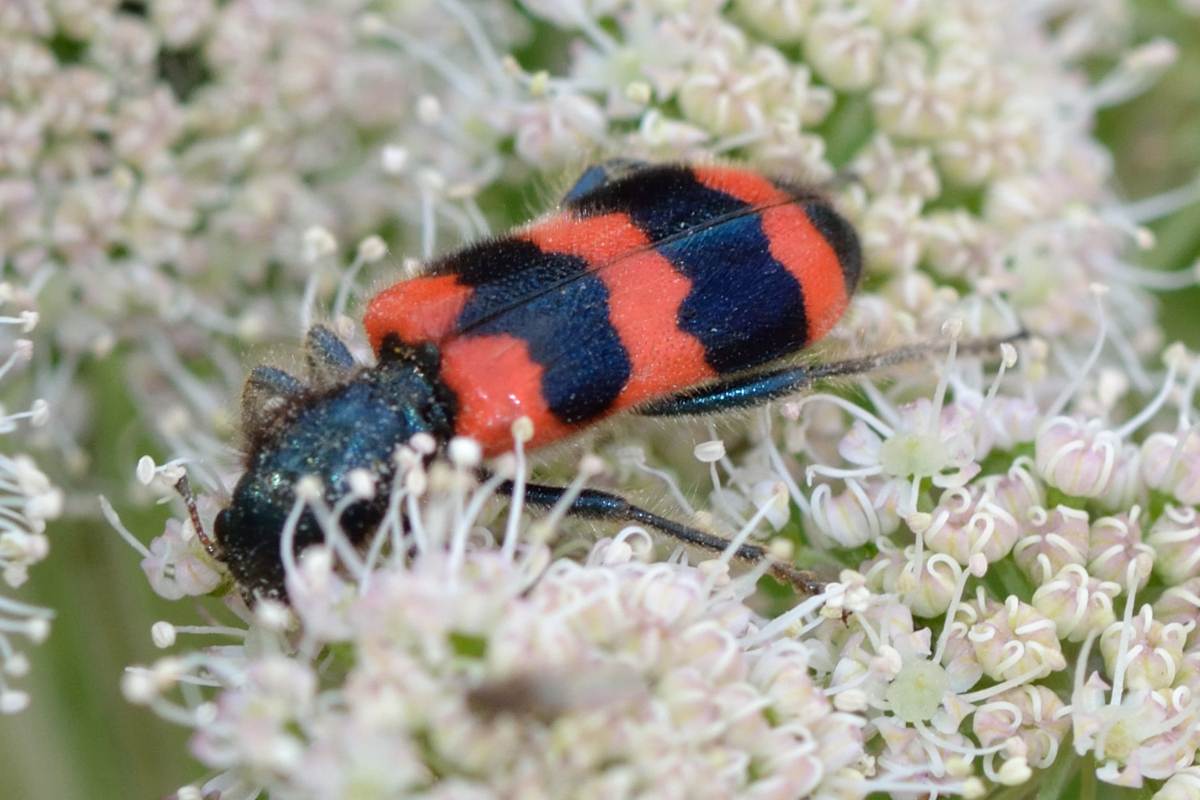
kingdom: Animalia
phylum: Arthropoda
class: Insecta
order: Coleoptera
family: Cleridae
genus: Trichodes
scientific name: Trichodes apiarius
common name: Bee-eating beetle
